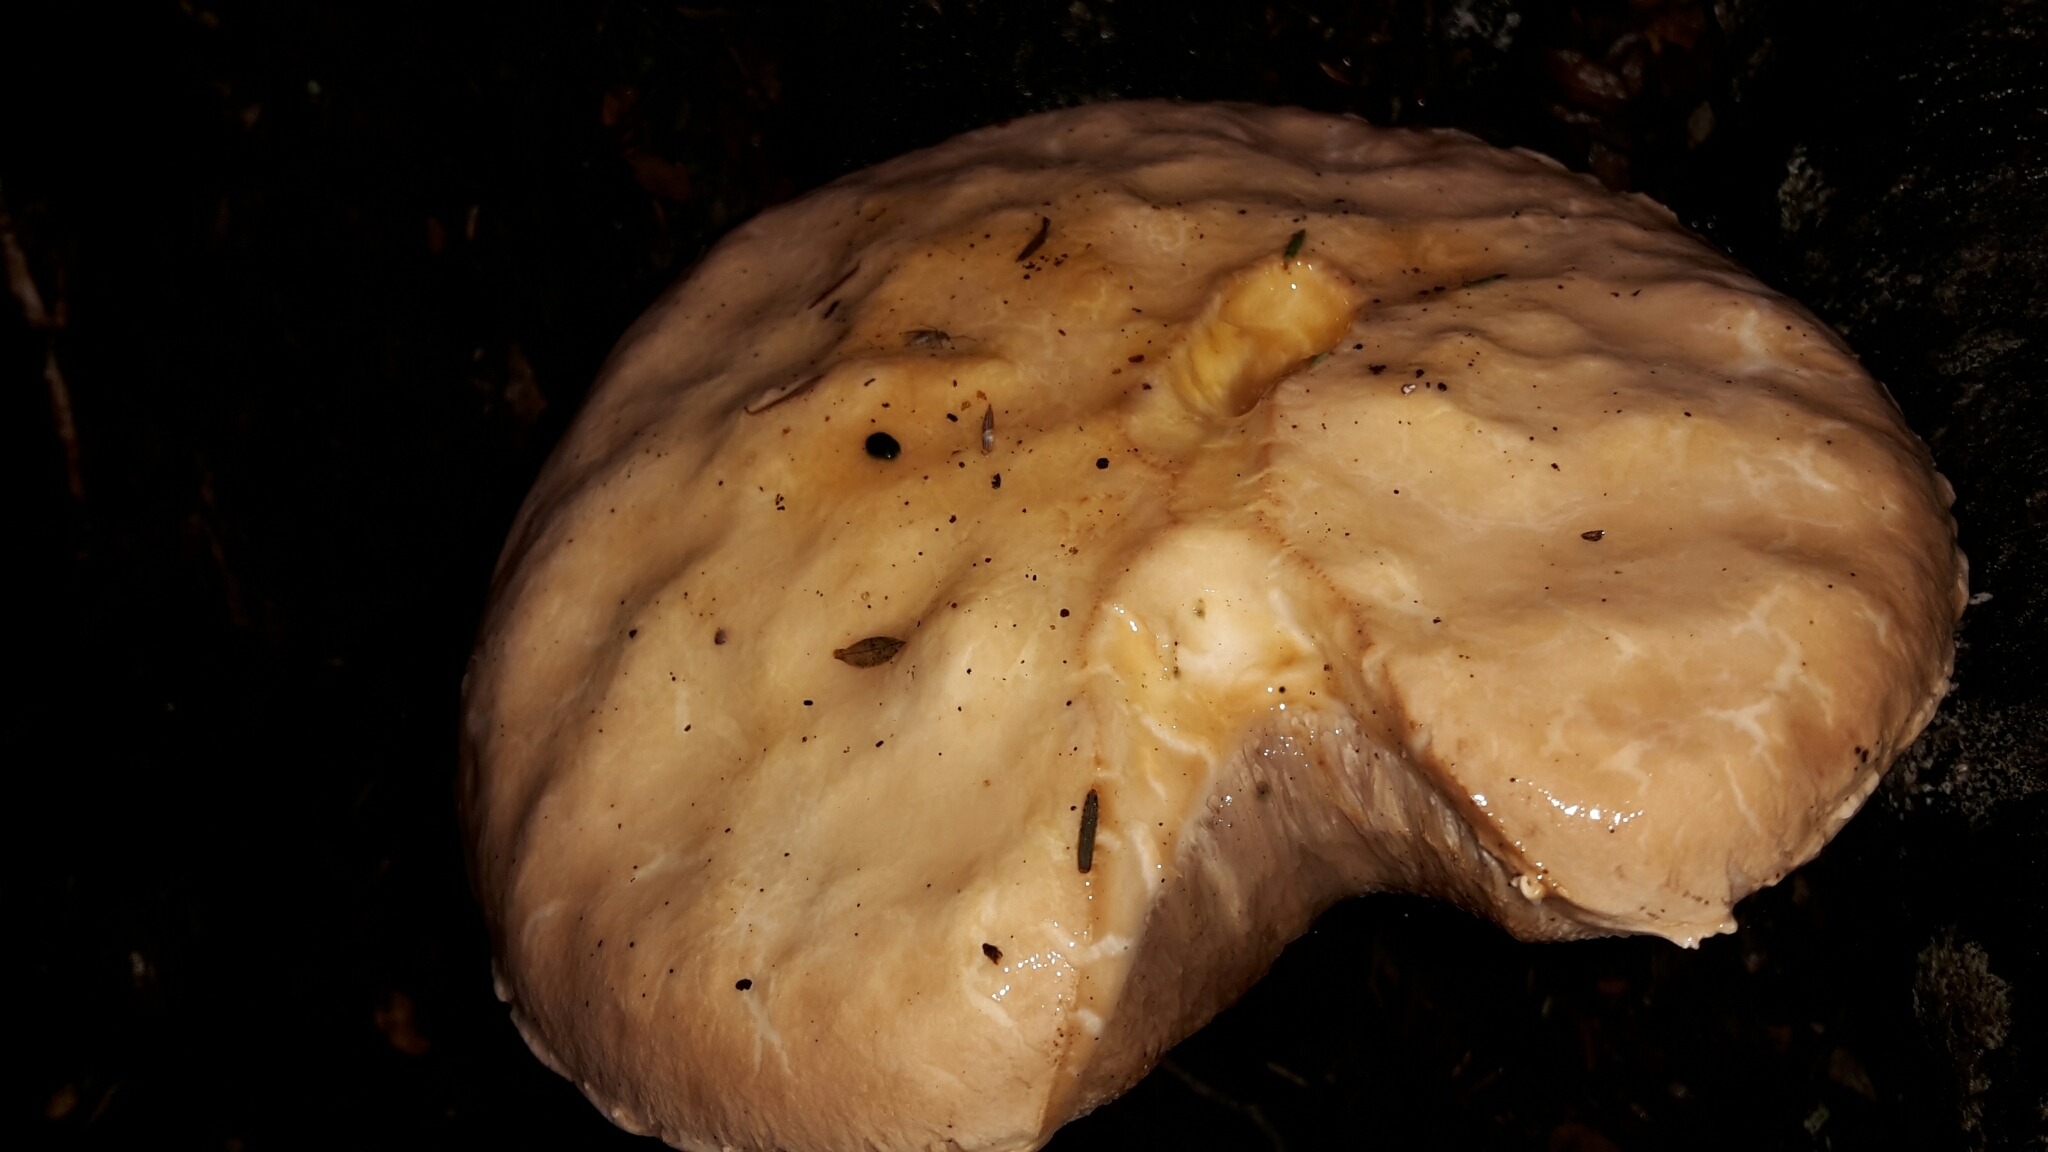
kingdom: Fungi
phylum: Basidiomycota
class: Agaricomycetes
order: Boletales
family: Boletaceae
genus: Fistulinella
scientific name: Fistulinella nivea
